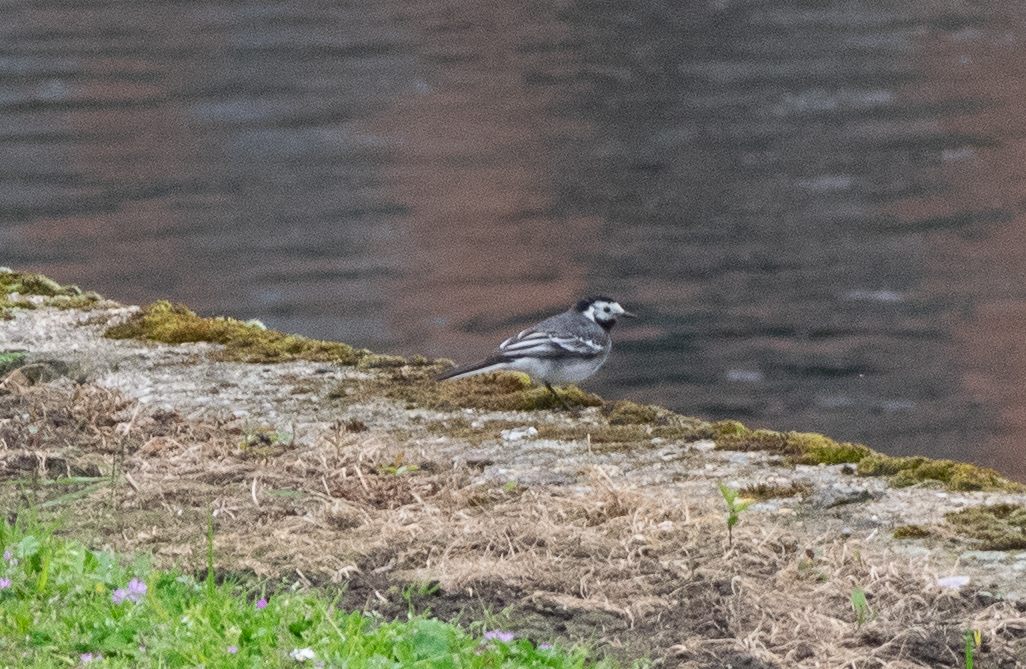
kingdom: Animalia
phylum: Chordata
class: Aves
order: Passeriformes
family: Motacillidae
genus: Motacilla
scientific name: Motacilla alba
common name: White wagtail
